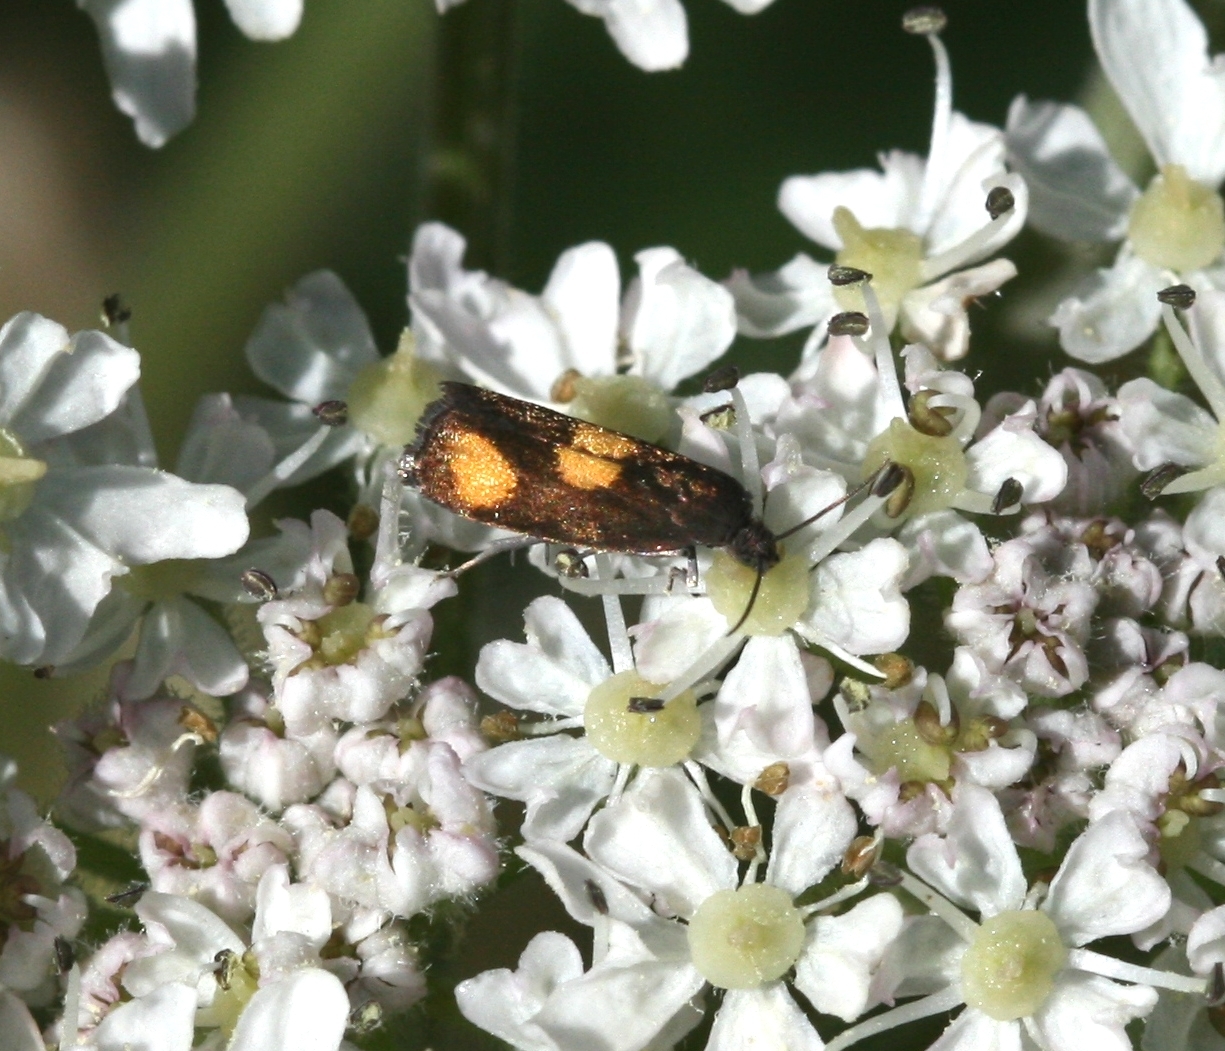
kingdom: Animalia
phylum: Arthropoda
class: Insecta
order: Lepidoptera
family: Tortricidae
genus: Pammene
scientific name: Pammene aurana
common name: Orange-spot piercer
